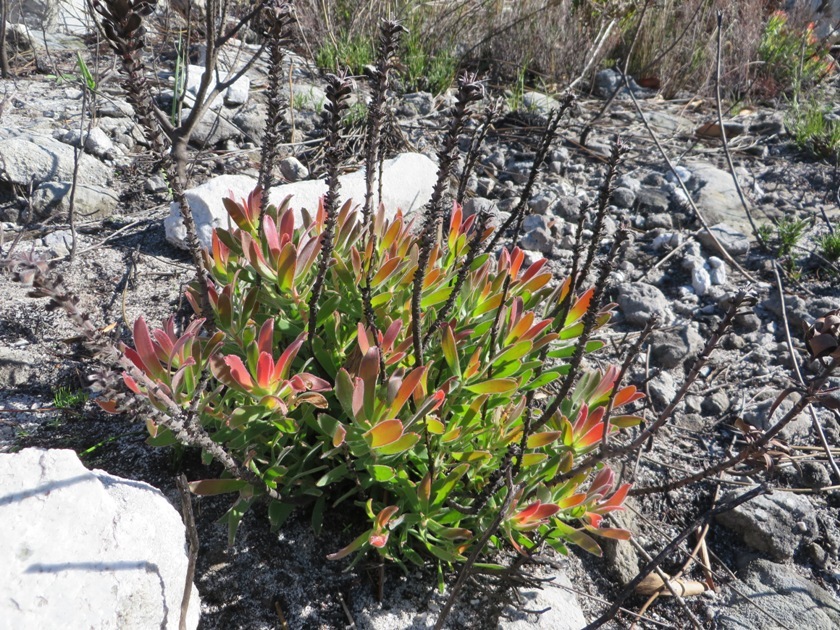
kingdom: Plantae
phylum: Tracheophyta
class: Magnoliopsida
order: Proteales
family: Proteaceae
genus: Mimetes
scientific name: Mimetes cucullatus
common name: Common pagoda
